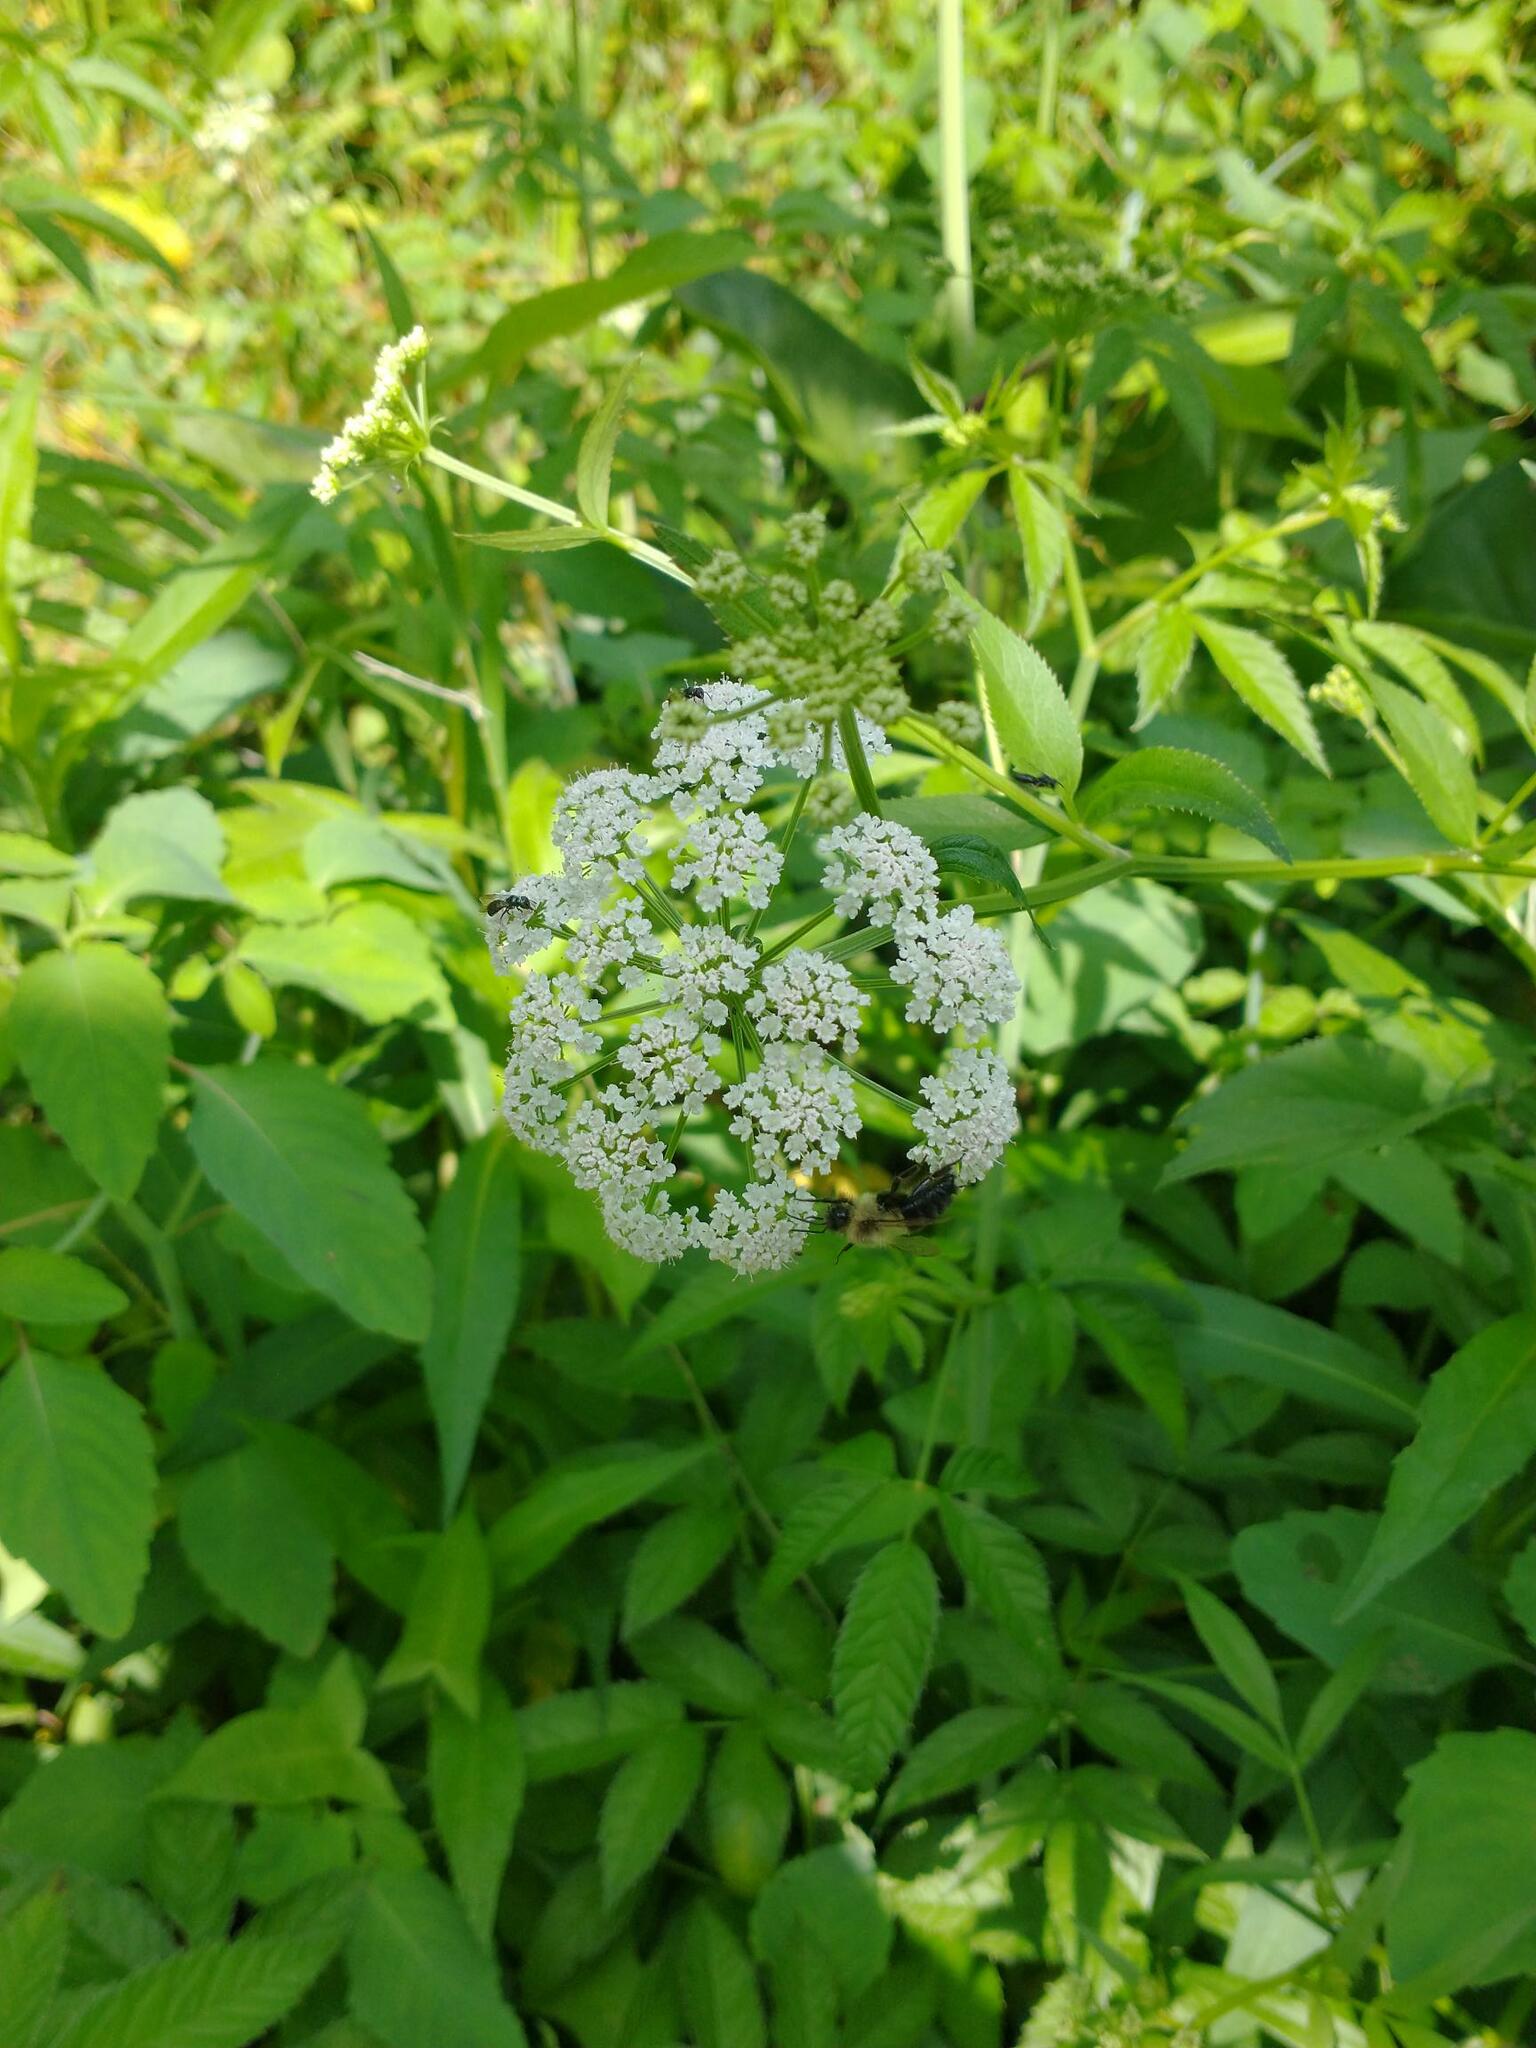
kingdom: Plantae
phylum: Tracheophyta
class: Magnoliopsida
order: Apiales
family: Apiaceae
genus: Sium
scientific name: Sium suave
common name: Hemlock water-parsnip
